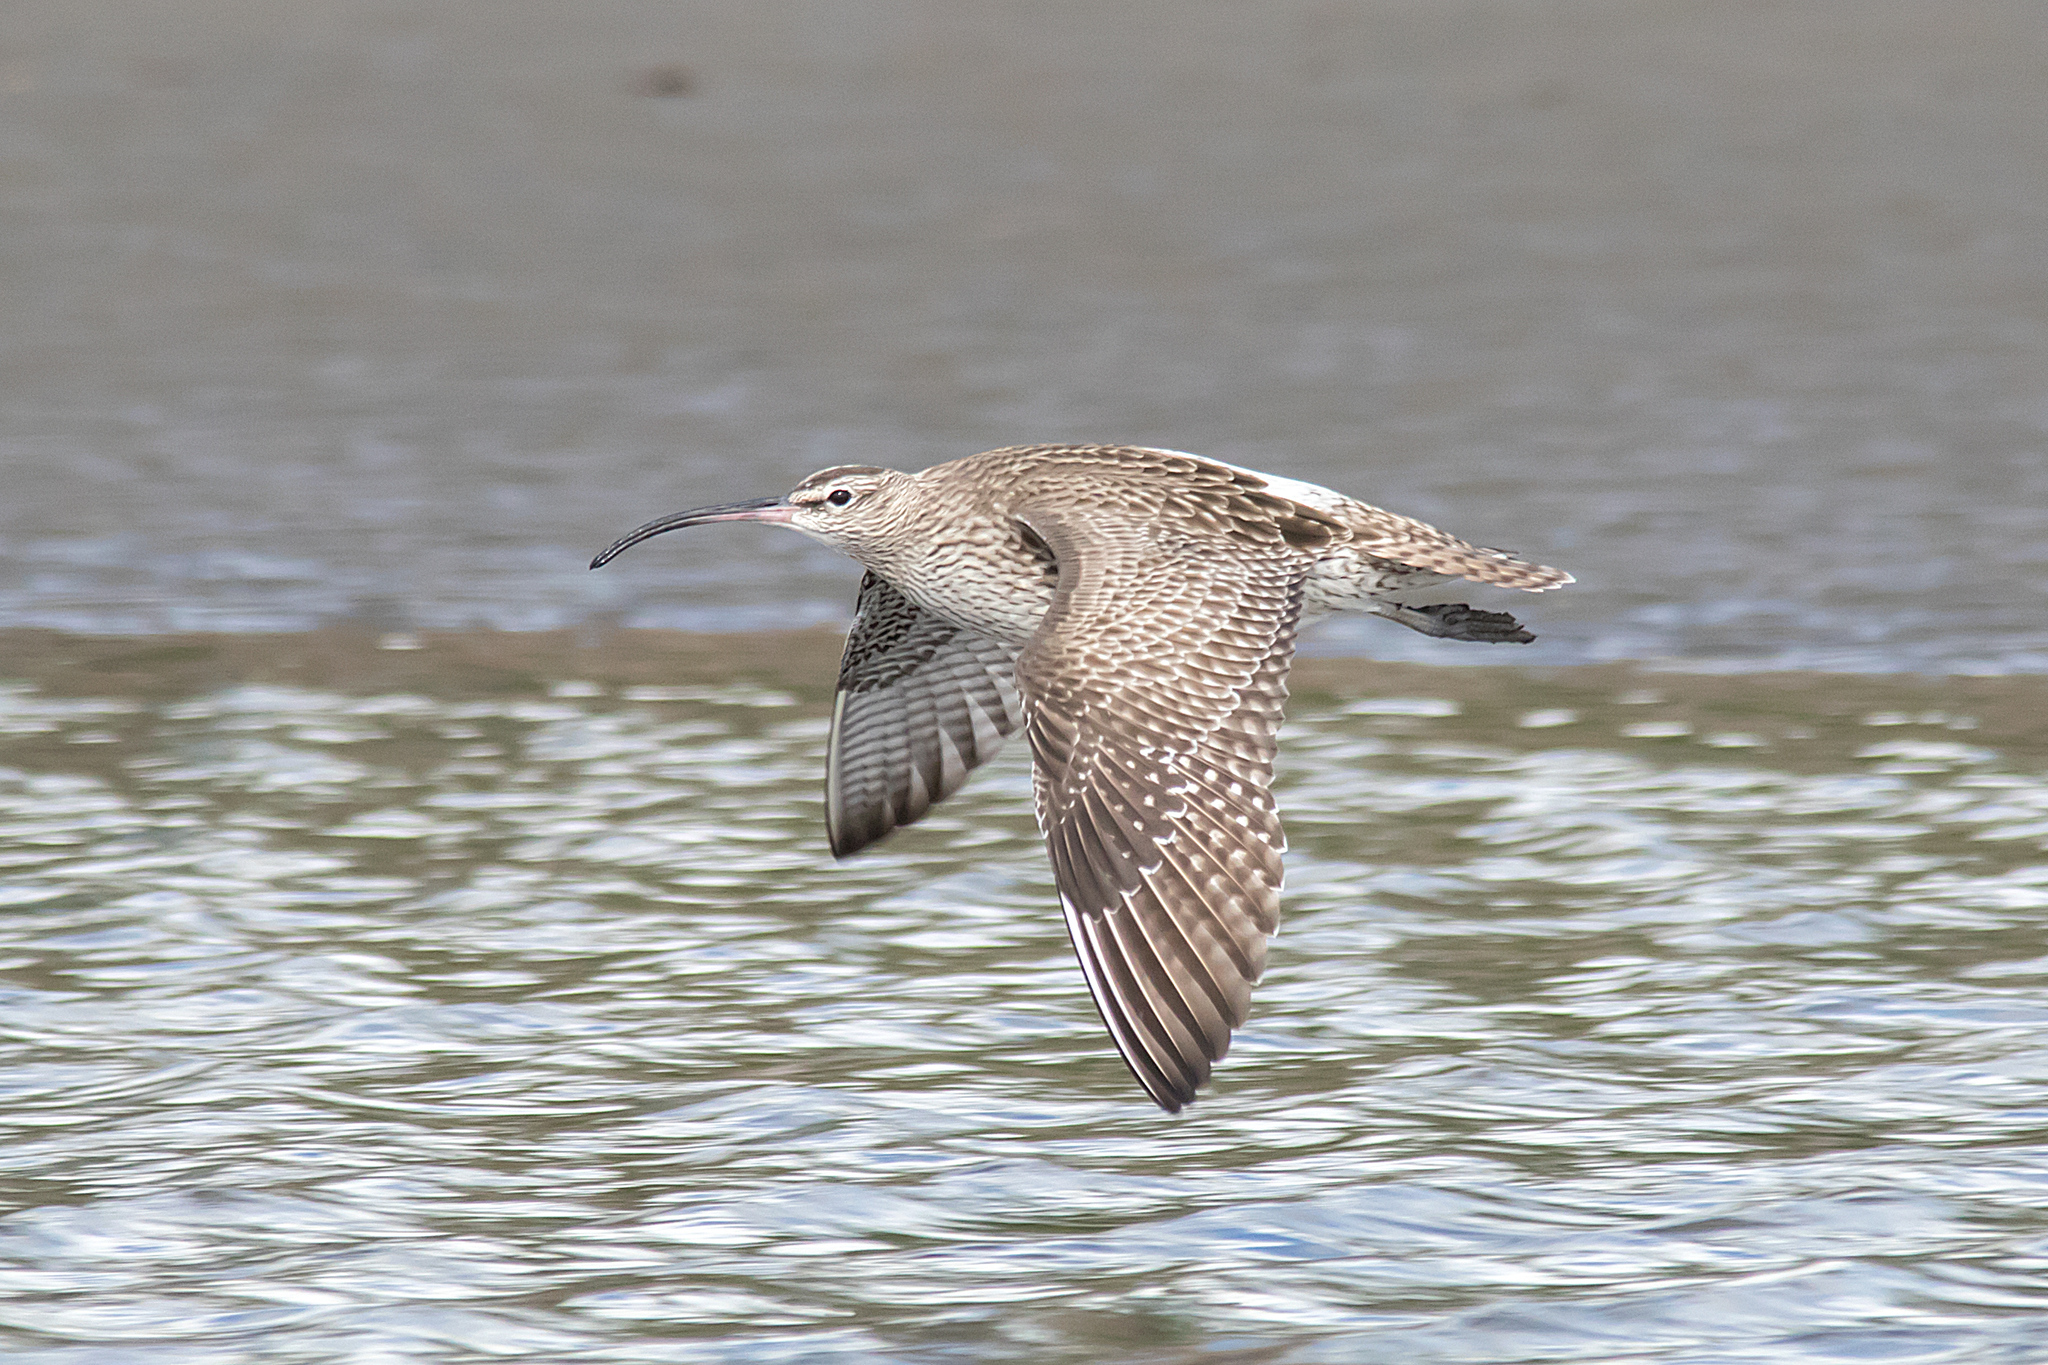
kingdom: Animalia
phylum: Chordata
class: Aves
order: Charadriiformes
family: Scolopacidae
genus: Numenius
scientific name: Numenius phaeopus
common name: Whimbrel
